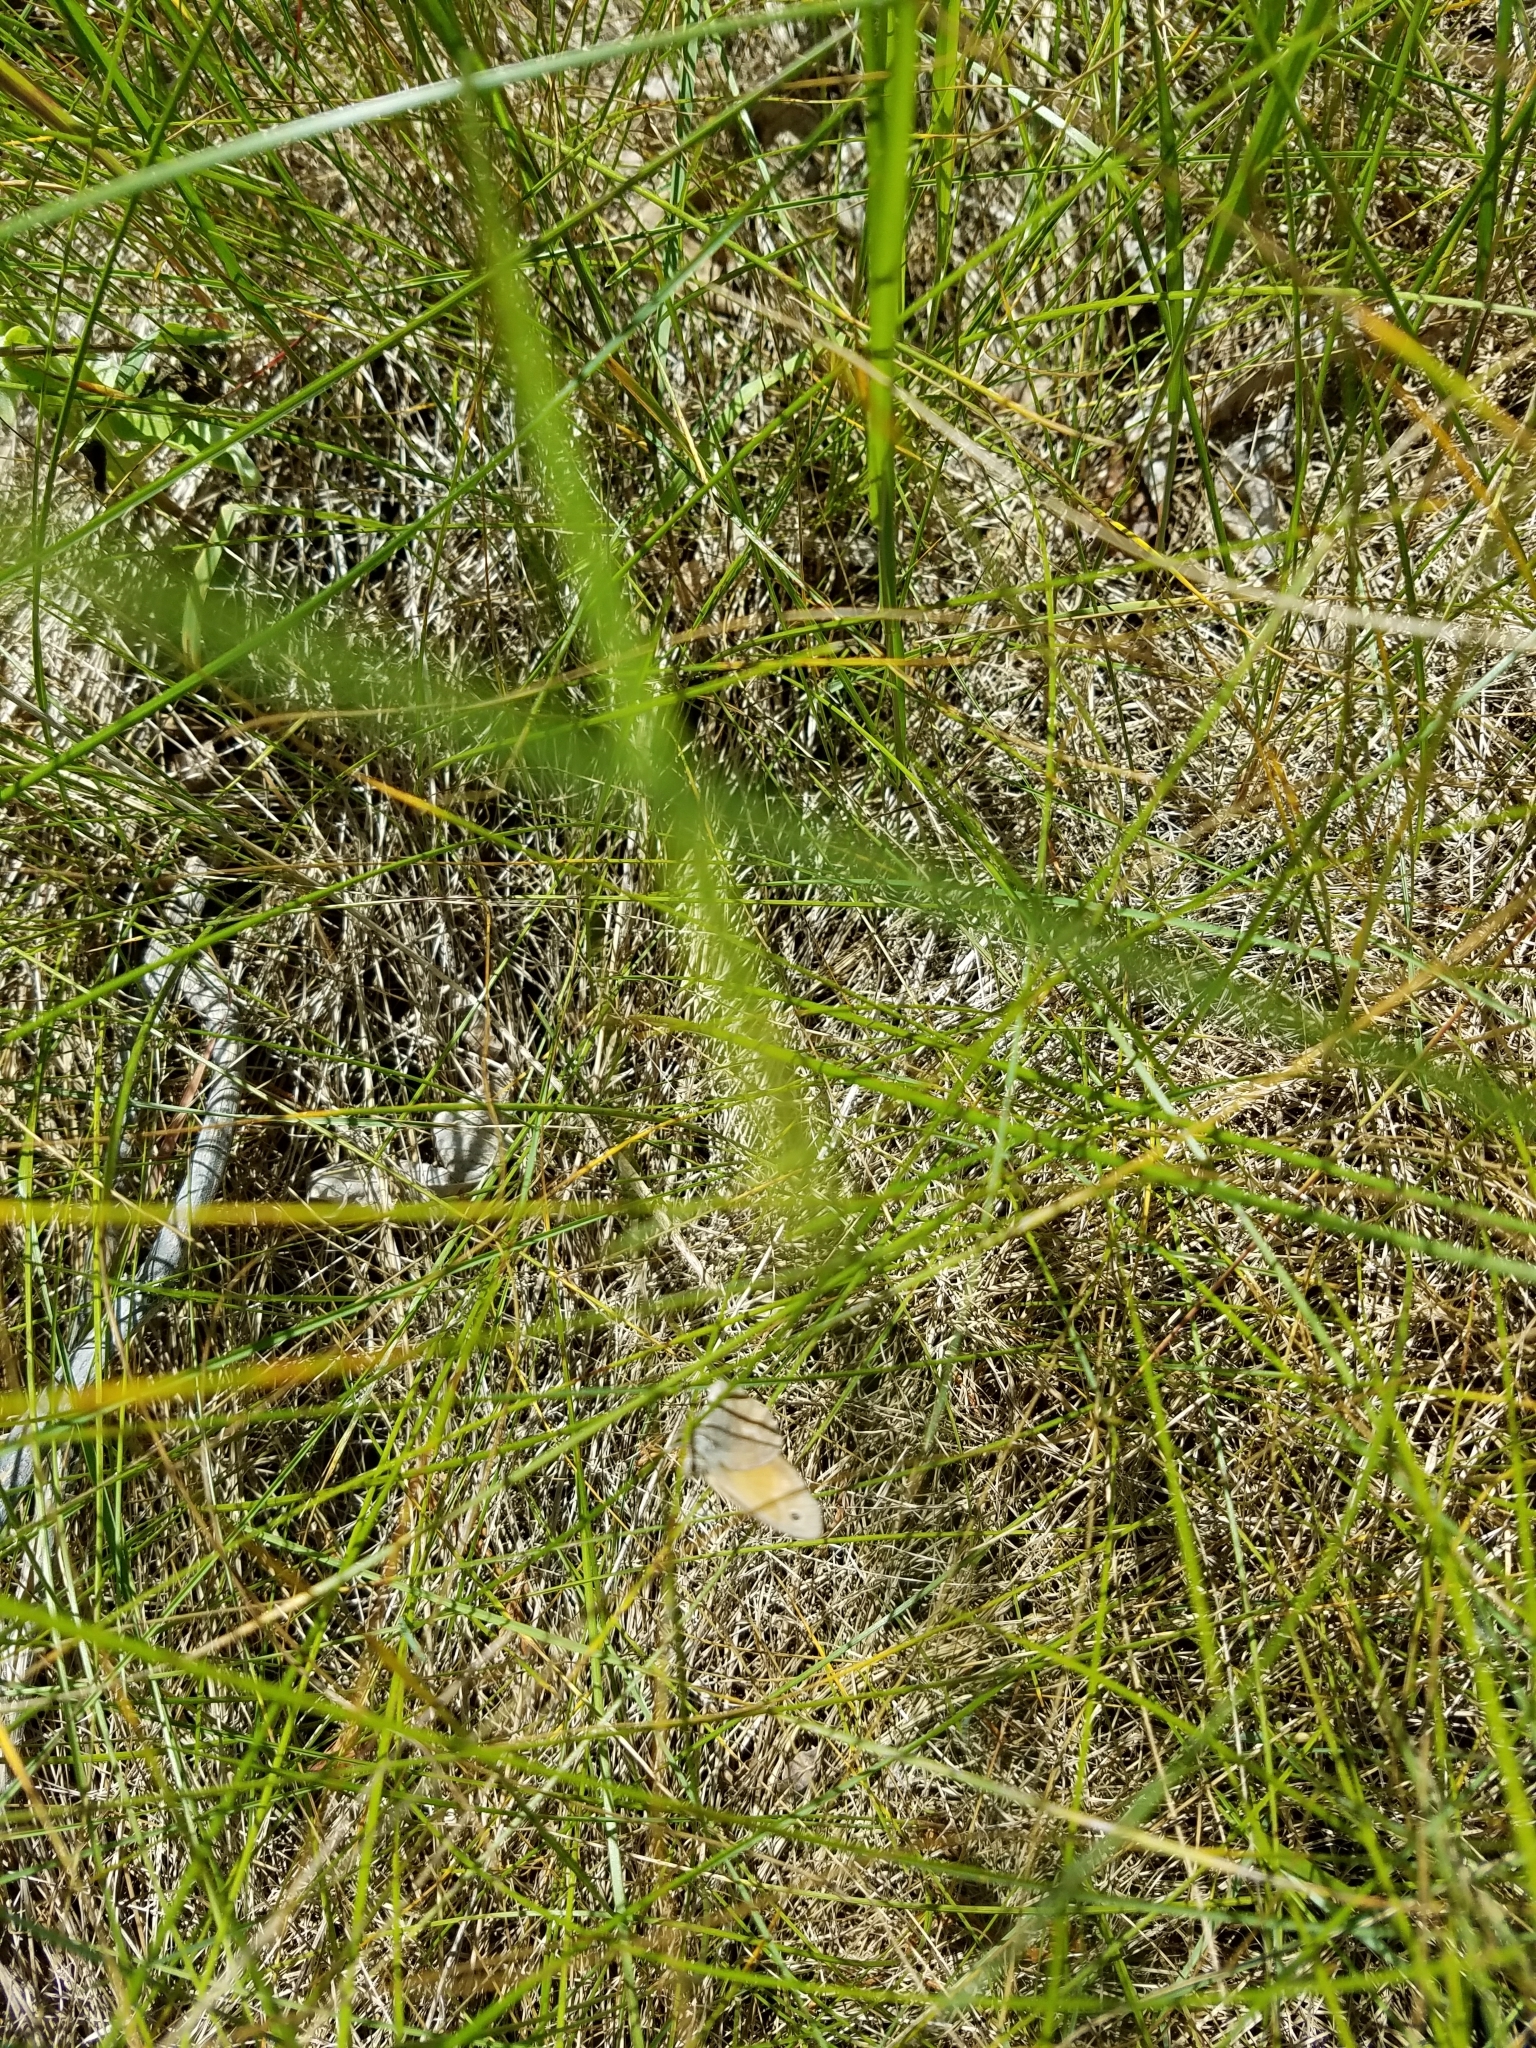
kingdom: Animalia
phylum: Arthropoda
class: Insecta
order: Lepidoptera
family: Nymphalidae
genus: Coenonympha
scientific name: Coenonympha california
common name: Common ringlet
